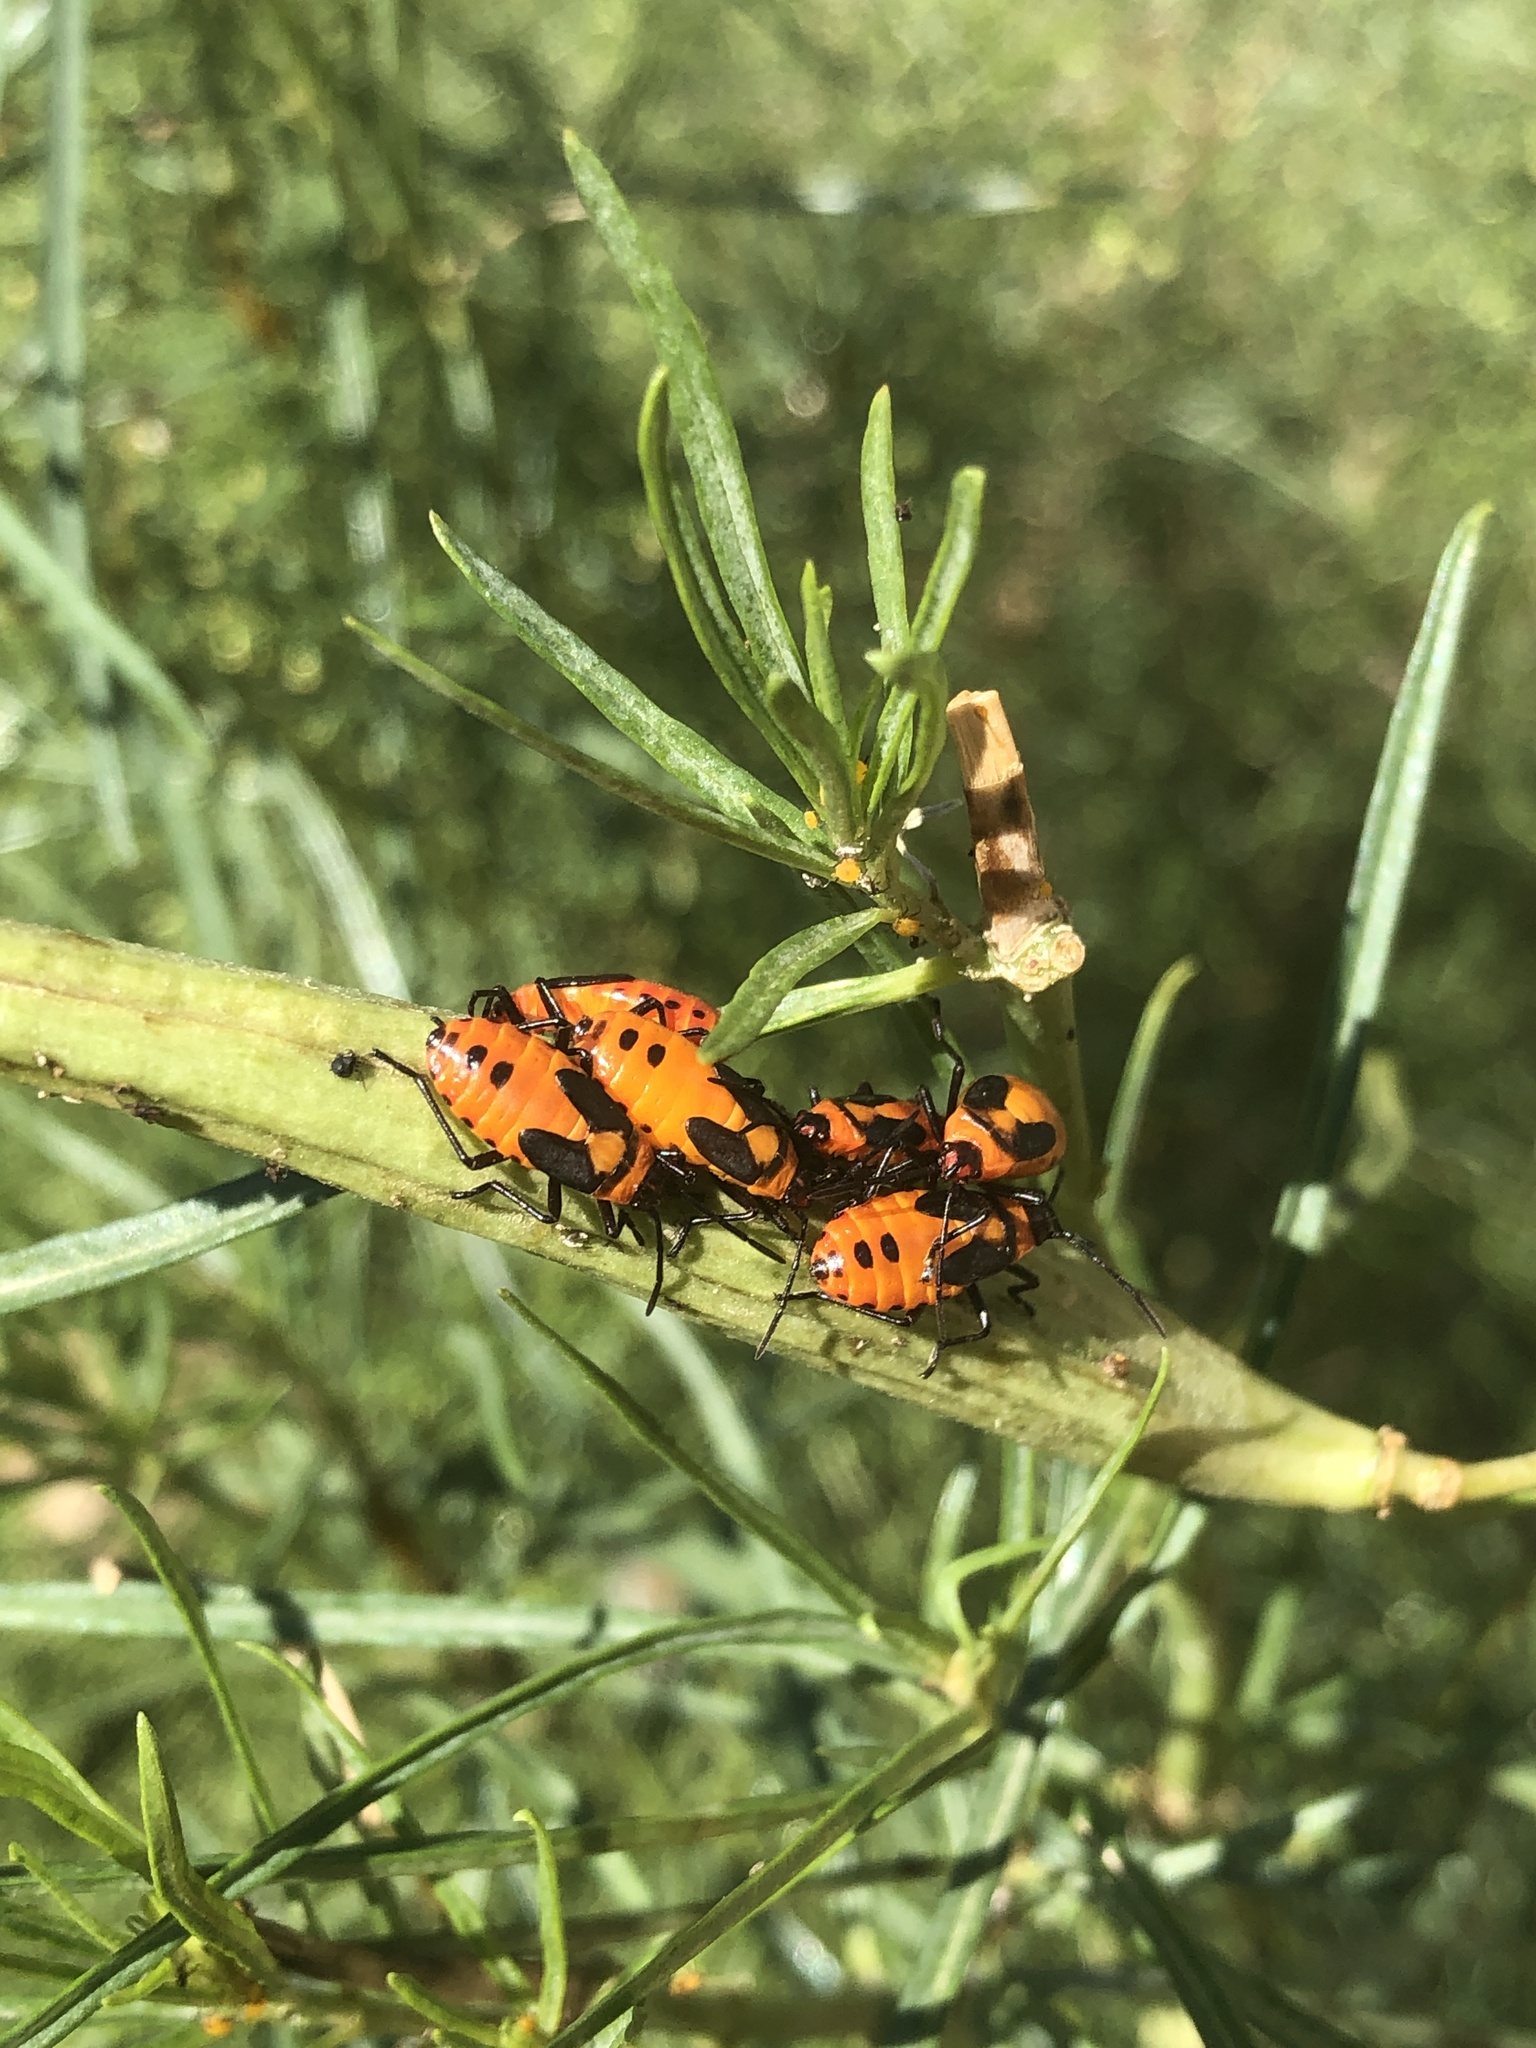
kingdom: Animalia
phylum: Arthropoda
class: Insecta
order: Hemiptera
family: Lygaeidae
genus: Oncopeltus
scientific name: Oncopeltus fasciatus
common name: Large milkweed bug
